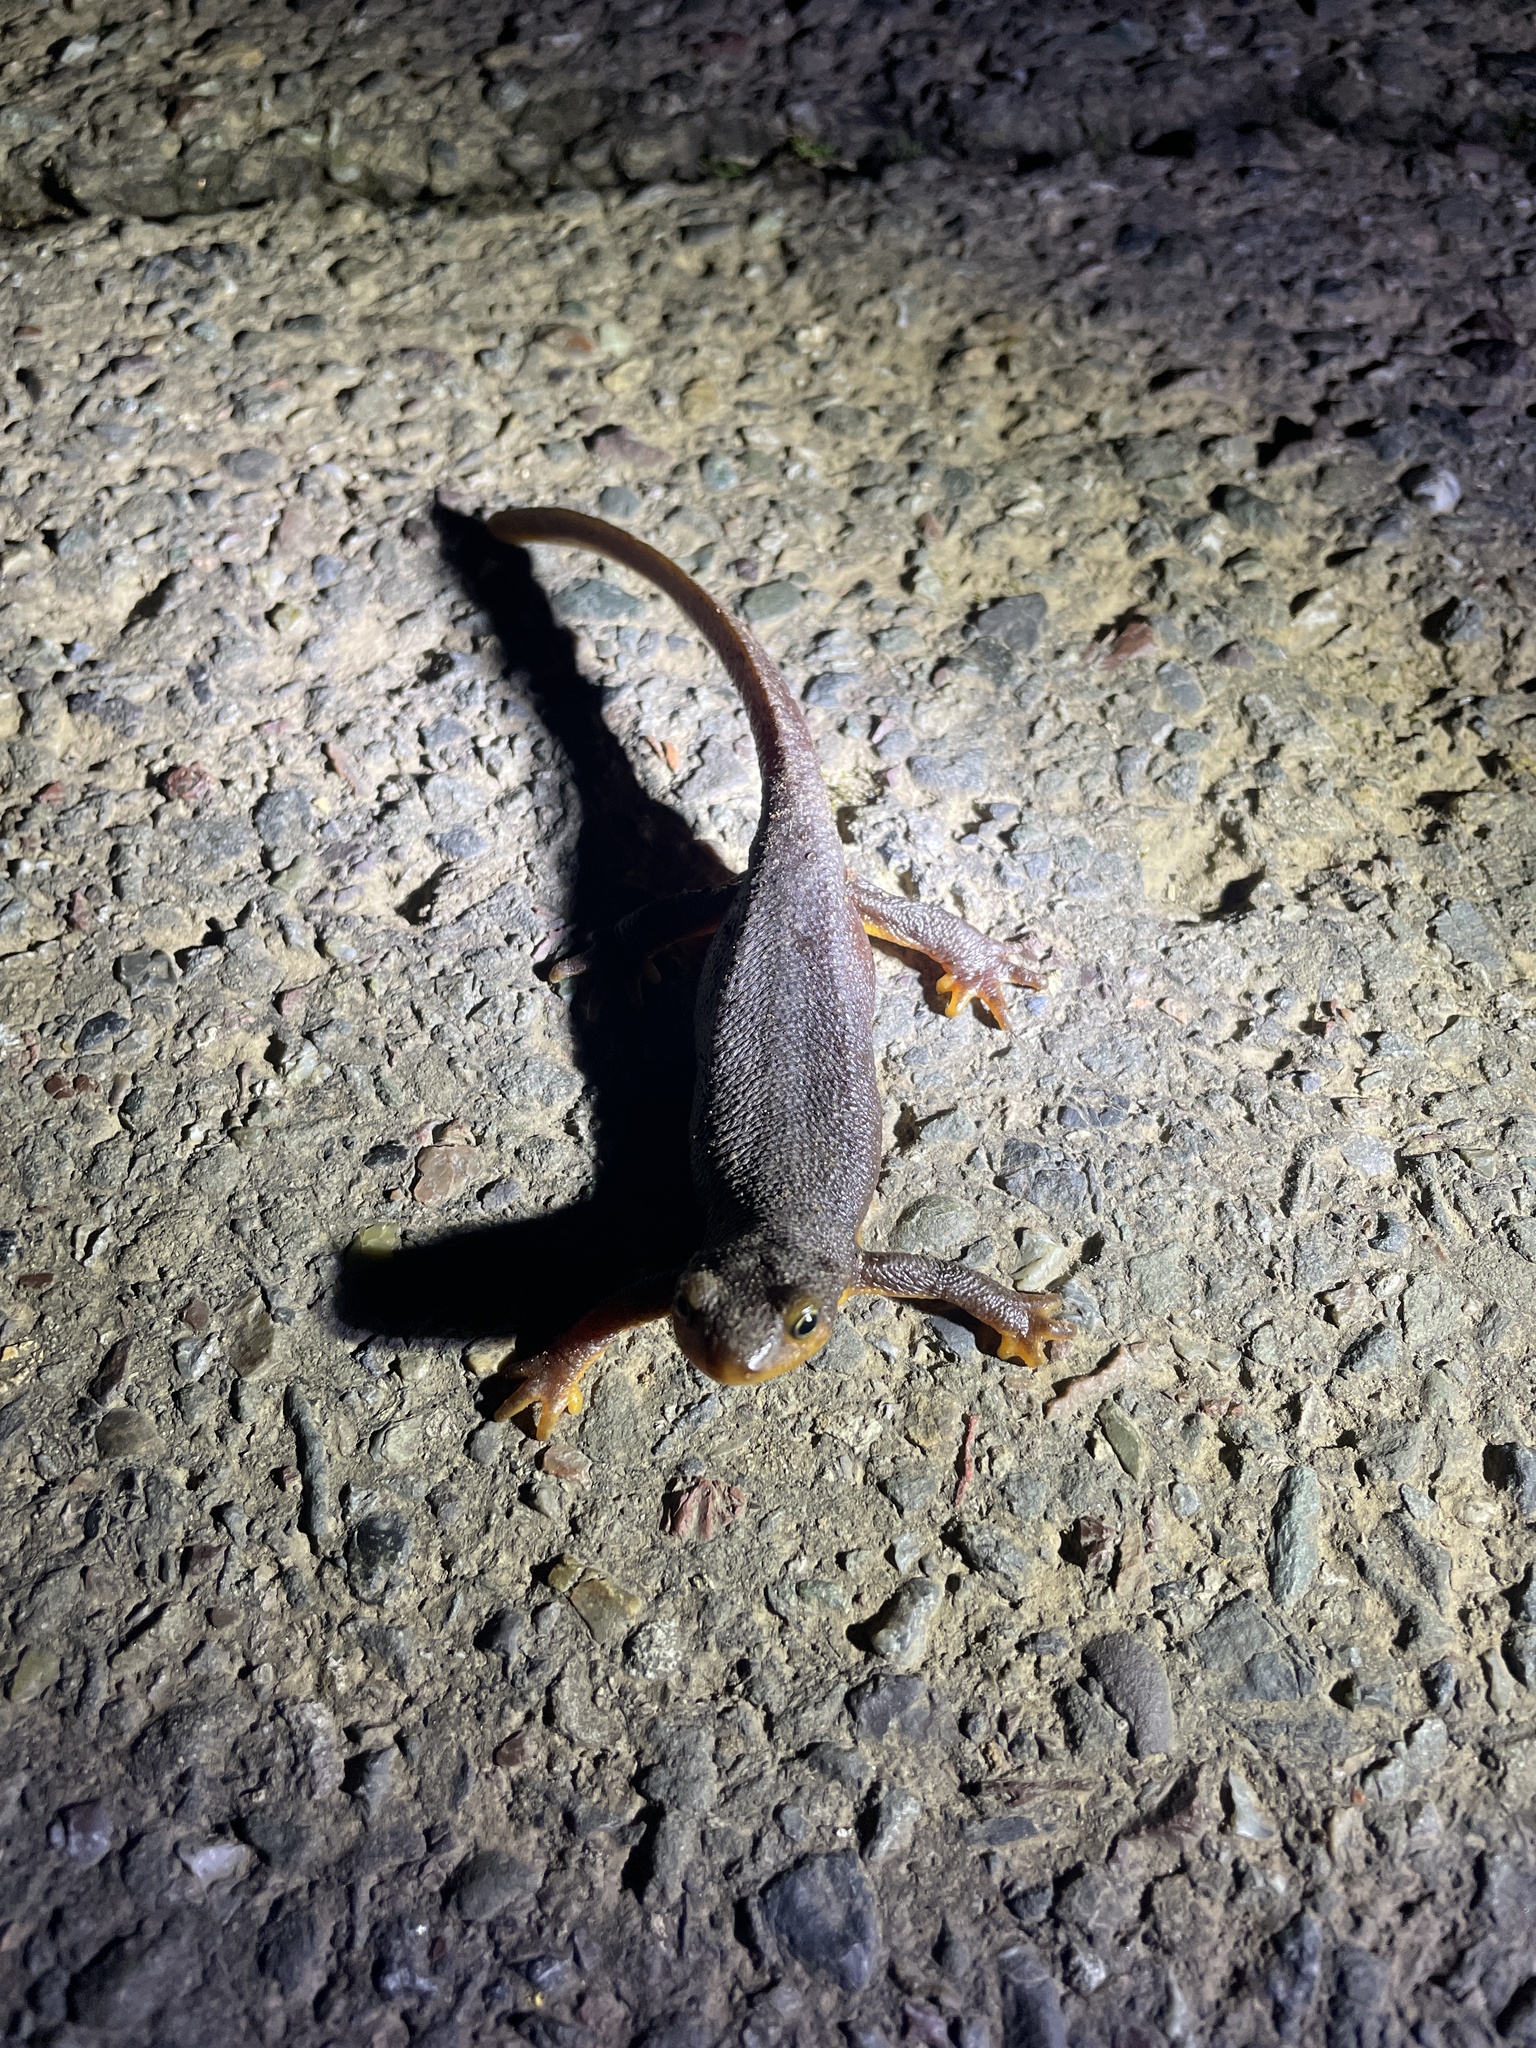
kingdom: Animalia
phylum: Chordata
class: Amphibia
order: Caudata
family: Salamandridae
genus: Taricha
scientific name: Taricha torosa
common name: California newt
